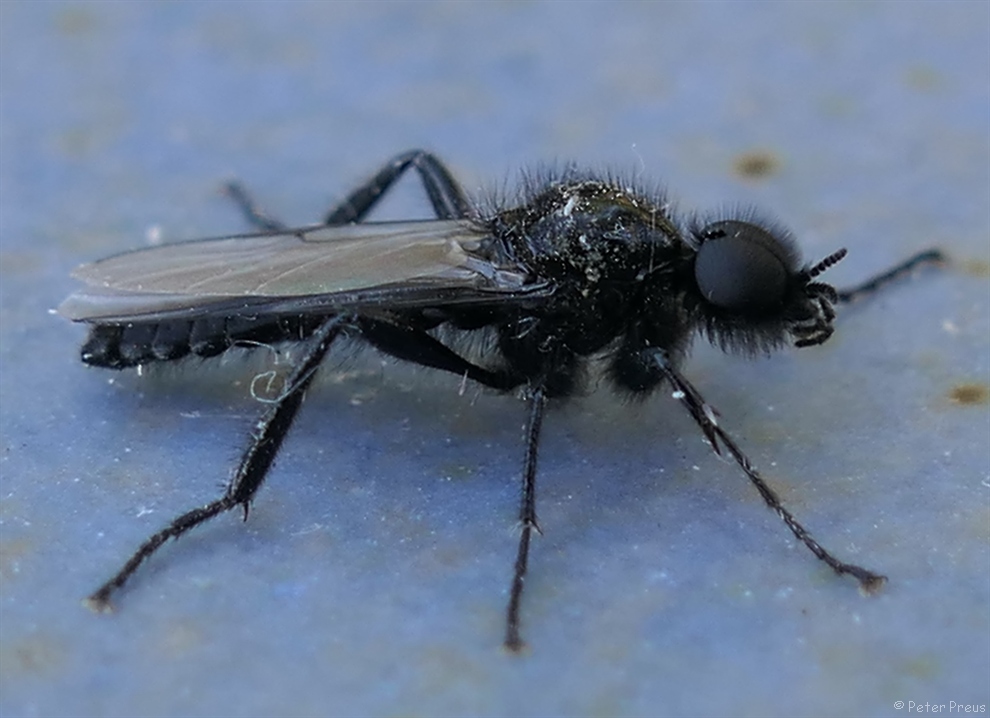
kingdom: Animalia
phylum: Arthropoda
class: Insecta
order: Diptera
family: Bibionidae
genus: Bibio
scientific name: Bibio marci
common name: St marks fly
